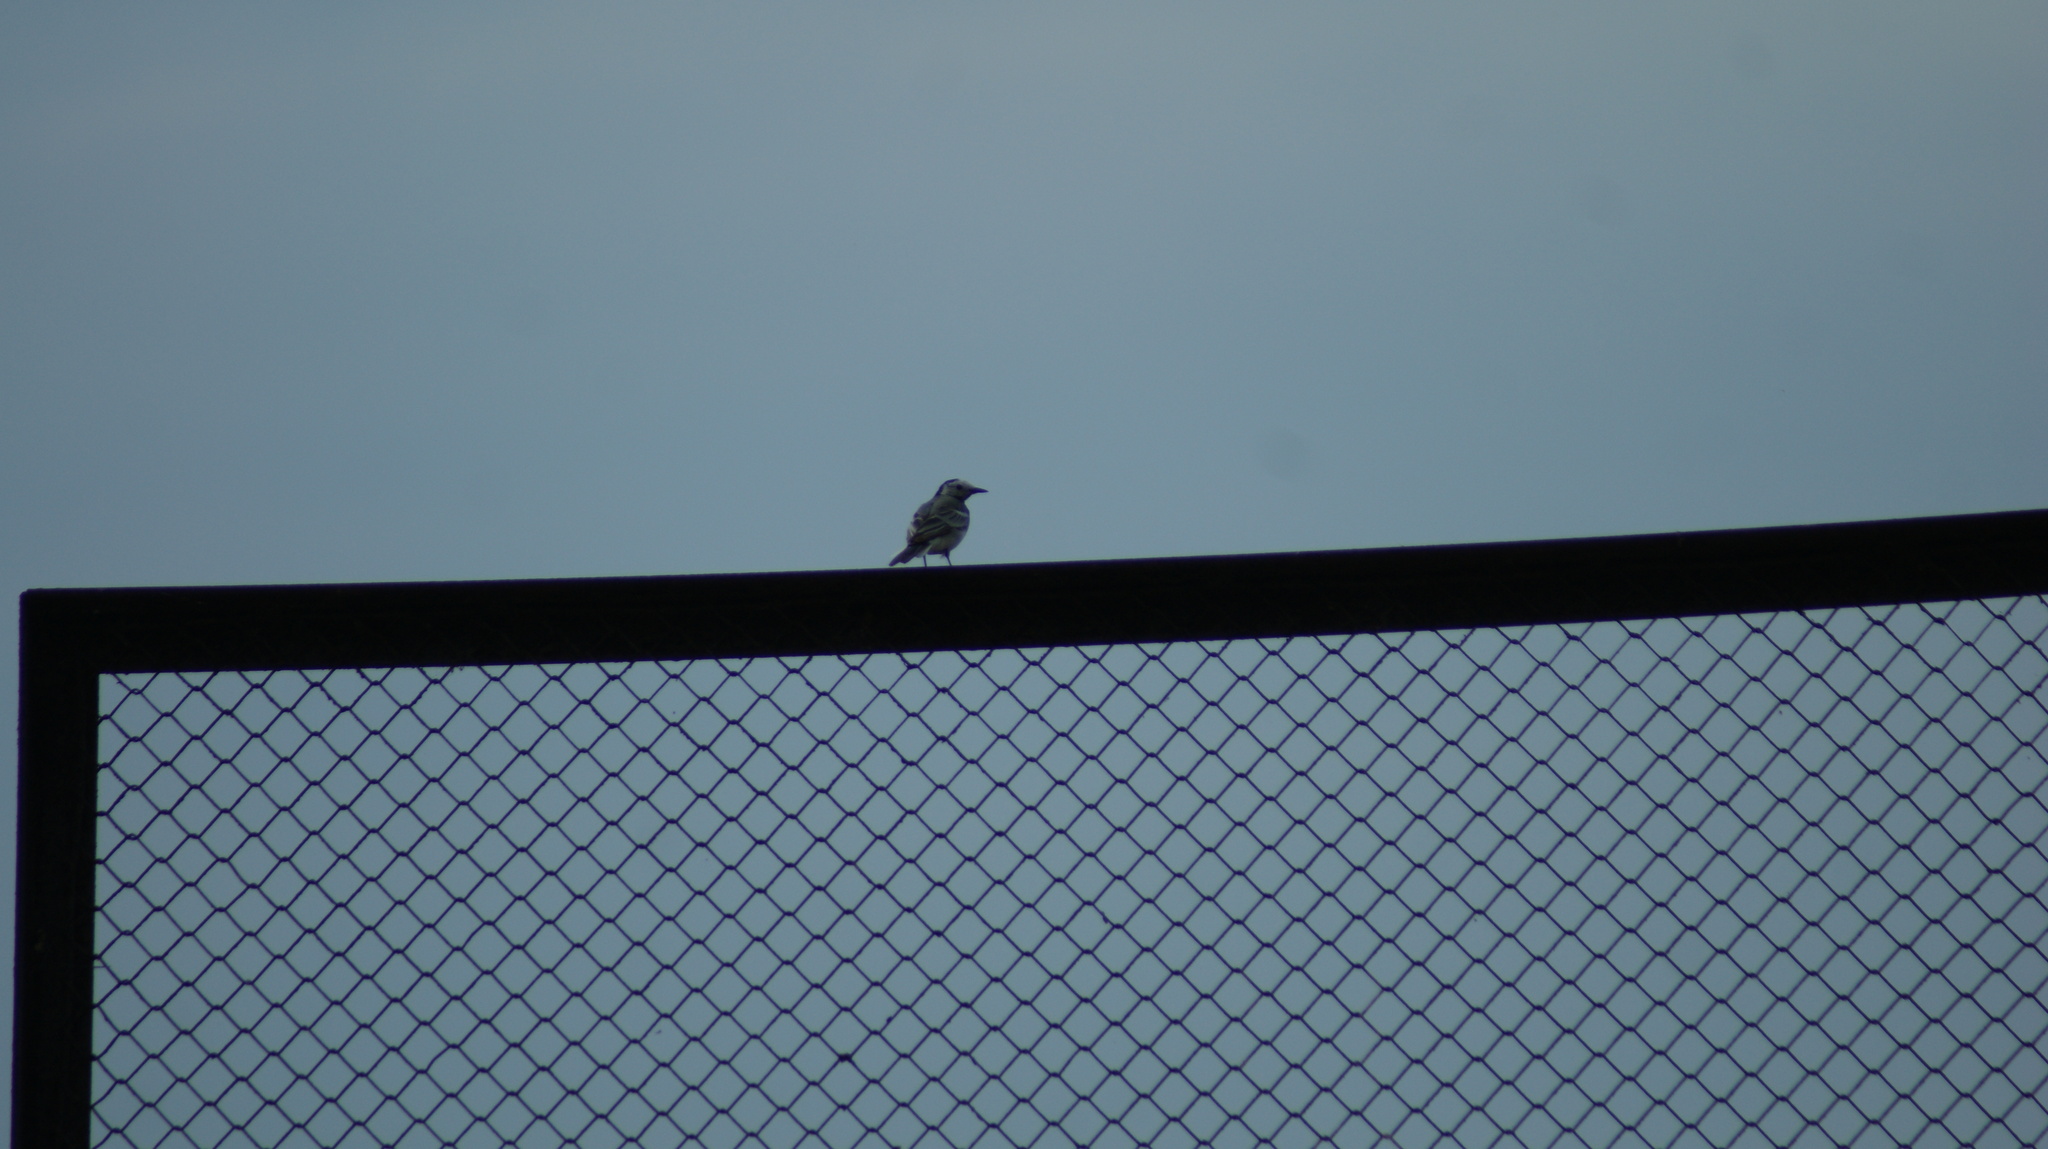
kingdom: Animalia
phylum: Chordata
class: Aves
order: Passeriformes
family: Motacillidae
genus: Motacilla
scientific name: Motacilla alba
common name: White wagtail
